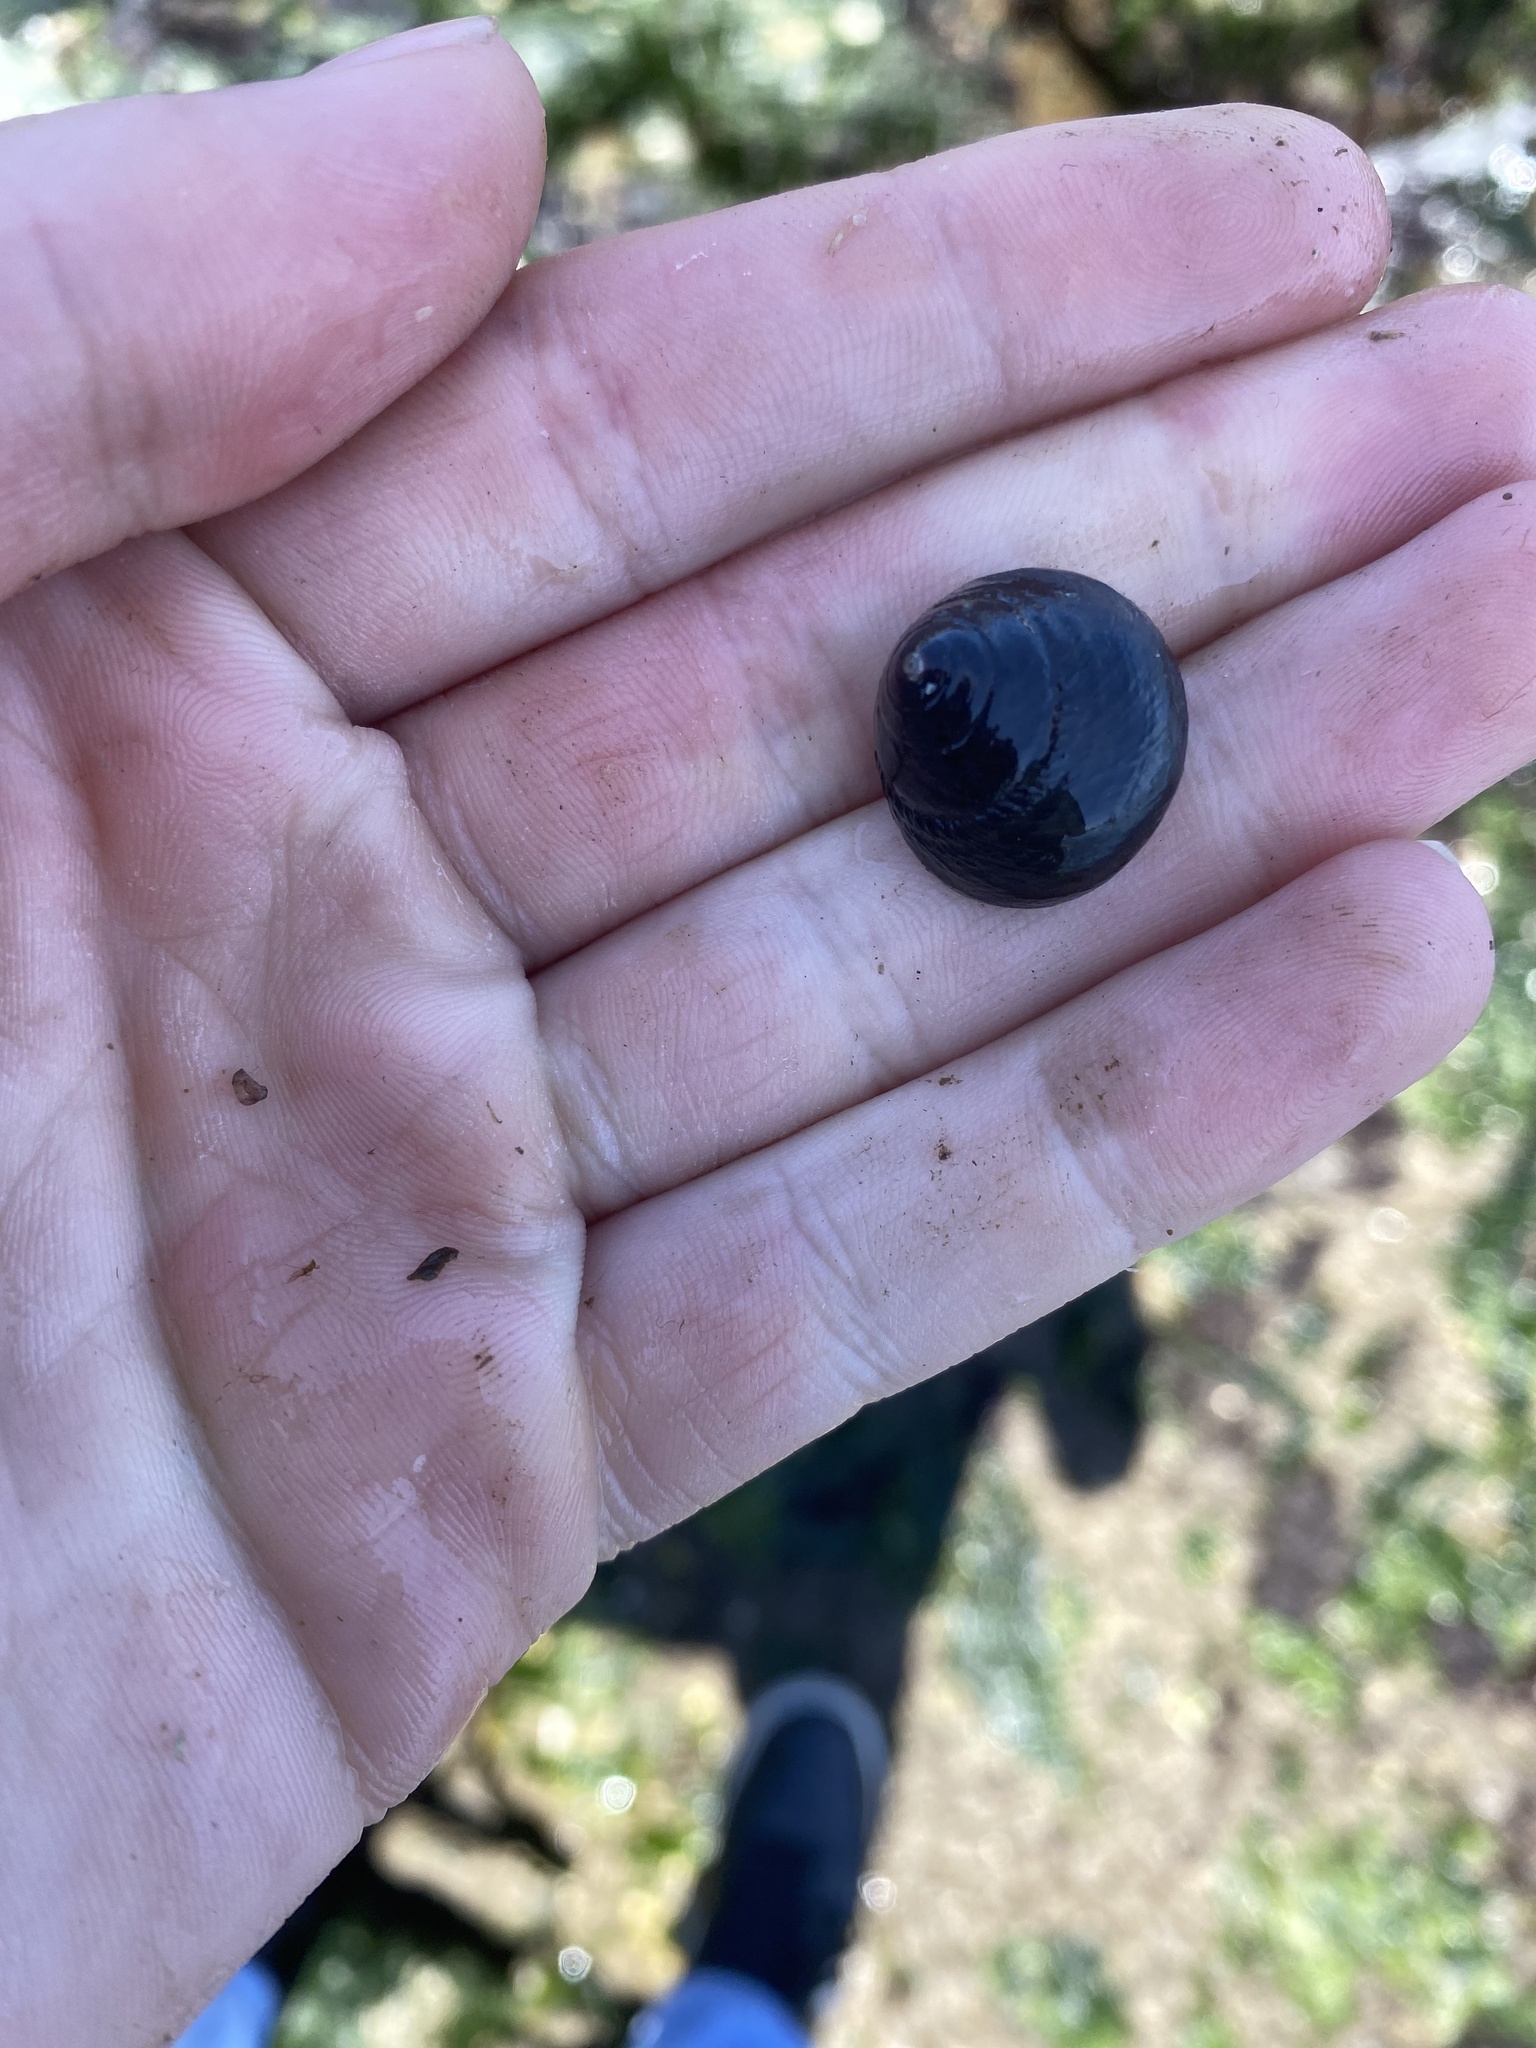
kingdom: Animalia
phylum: Mollusca
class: Gastropoda
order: Trochida
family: Tegulidae
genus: Tegula
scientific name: Tegula funebralis
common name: Black tegula
